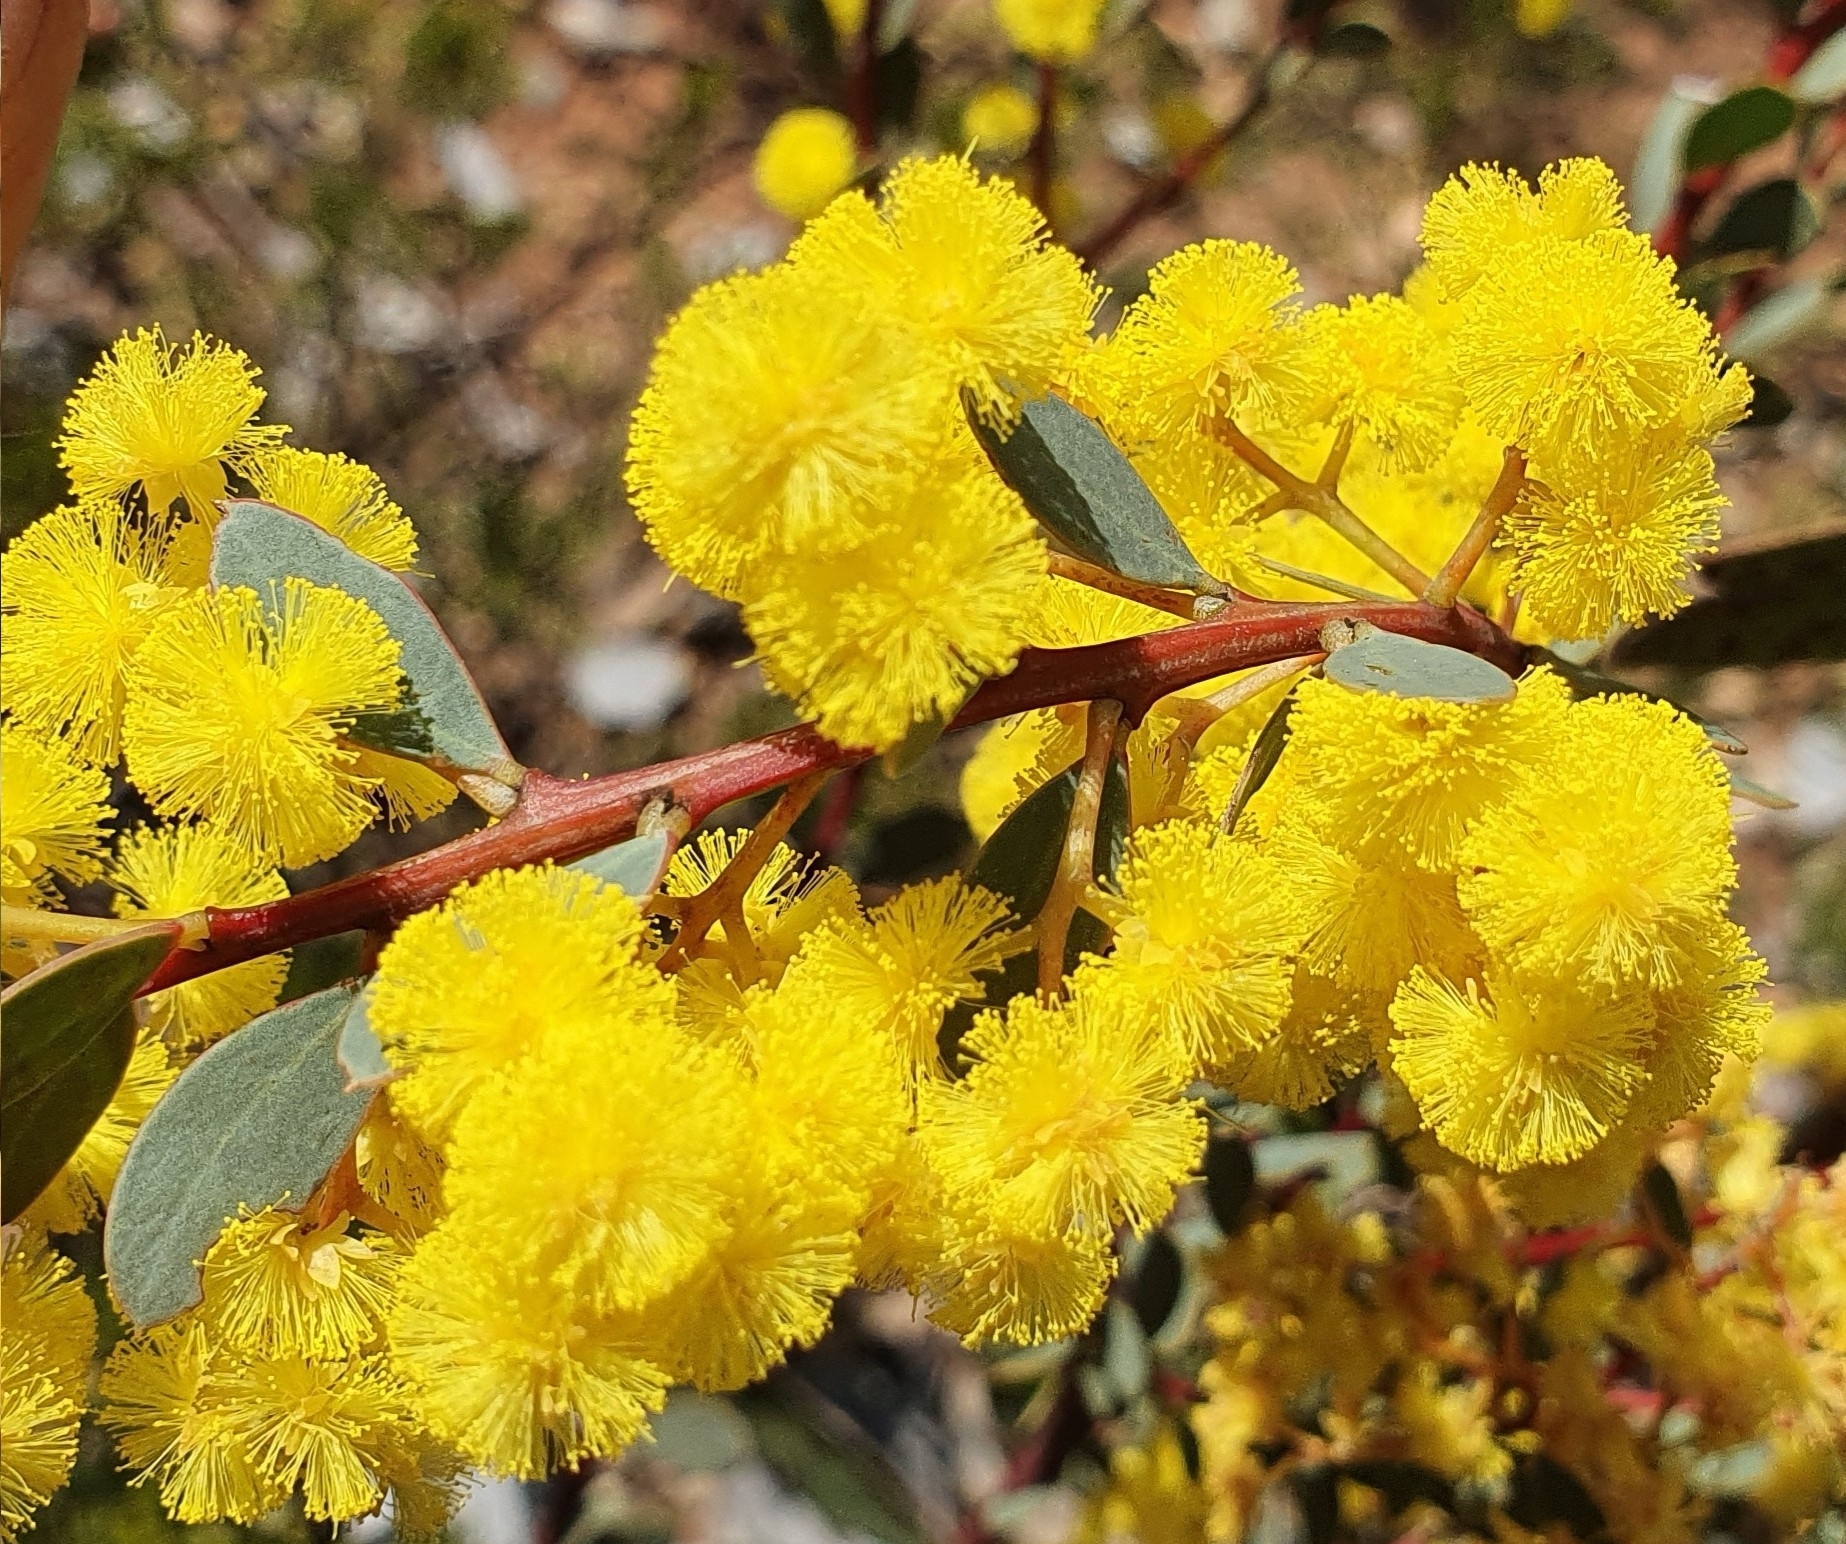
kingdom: Plantae
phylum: Tracheophyta
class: Magnoliopsida
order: Fabales
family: Fabaceae
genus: Acacia
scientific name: Acacia buxifolia
